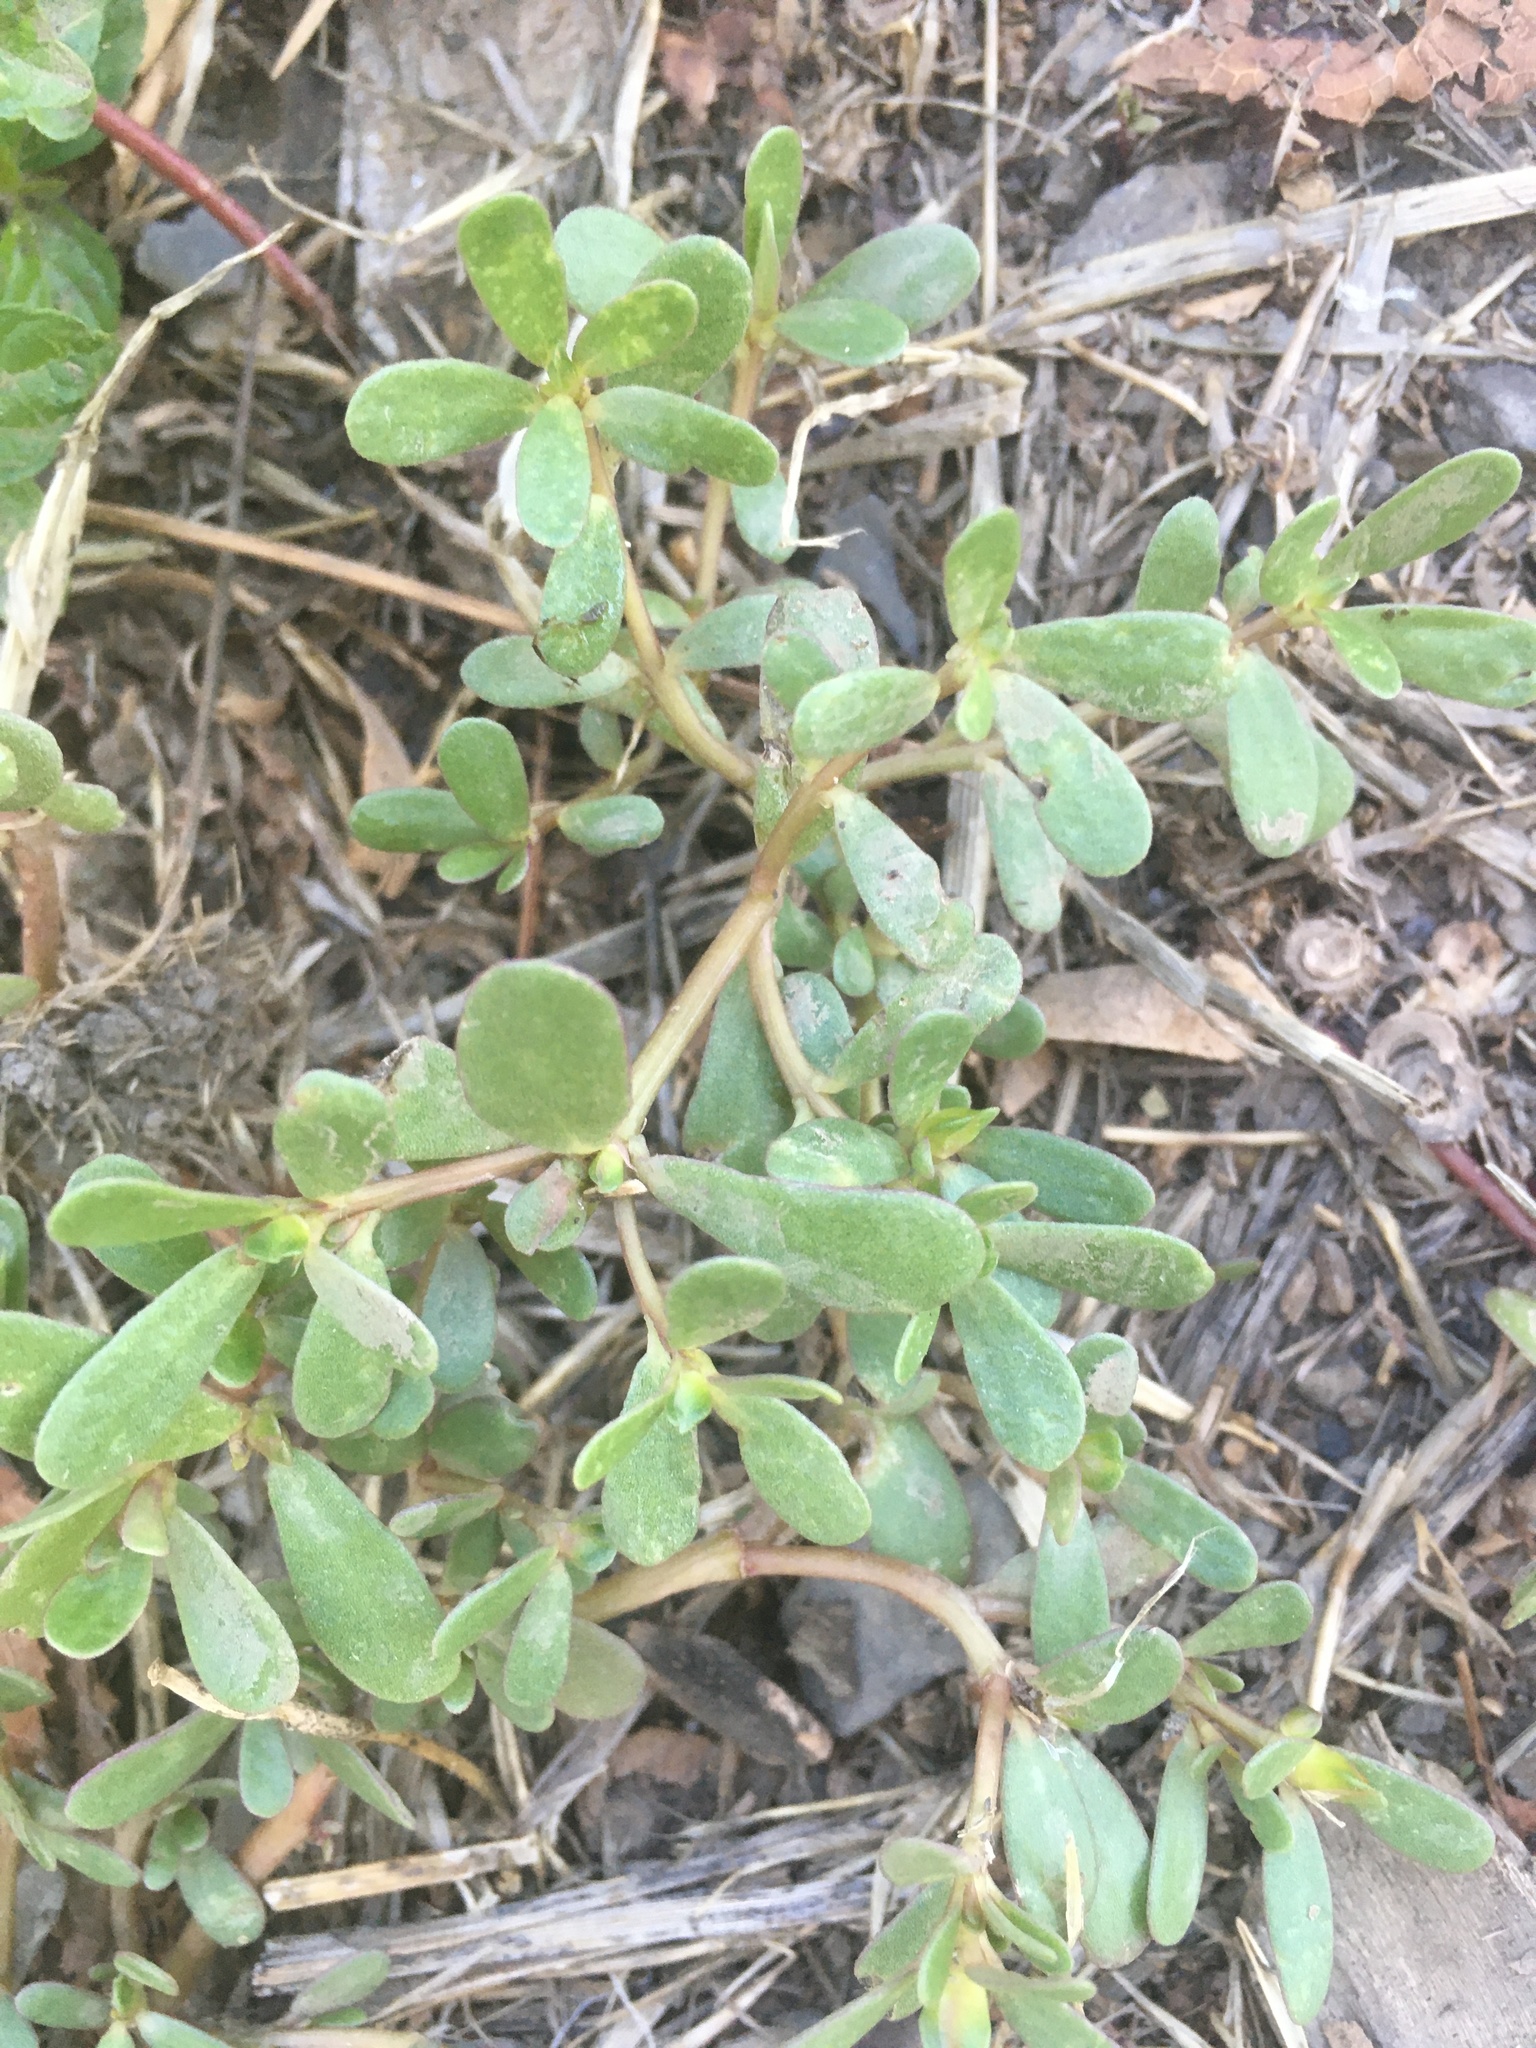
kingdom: Plantae
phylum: Tracheophyta
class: Magnoliopsida
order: Caryophyllales
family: Portulacaceae
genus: Portulaca
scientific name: Portulaca oleracea
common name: Common purslane
